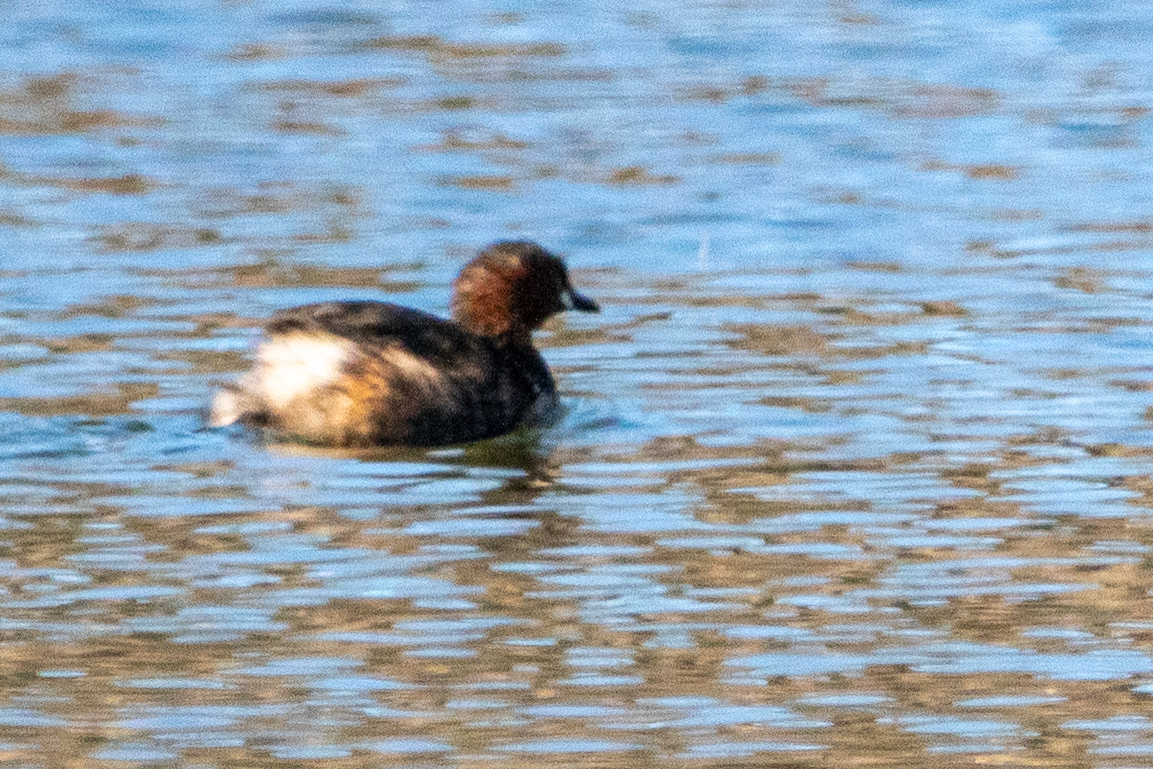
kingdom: Animalia
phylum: Chordata
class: Aves
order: Podicipediformes
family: Podicipedidae
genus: Tachybaptus
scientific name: Tachybaptus ruficollis
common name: Little grebe
